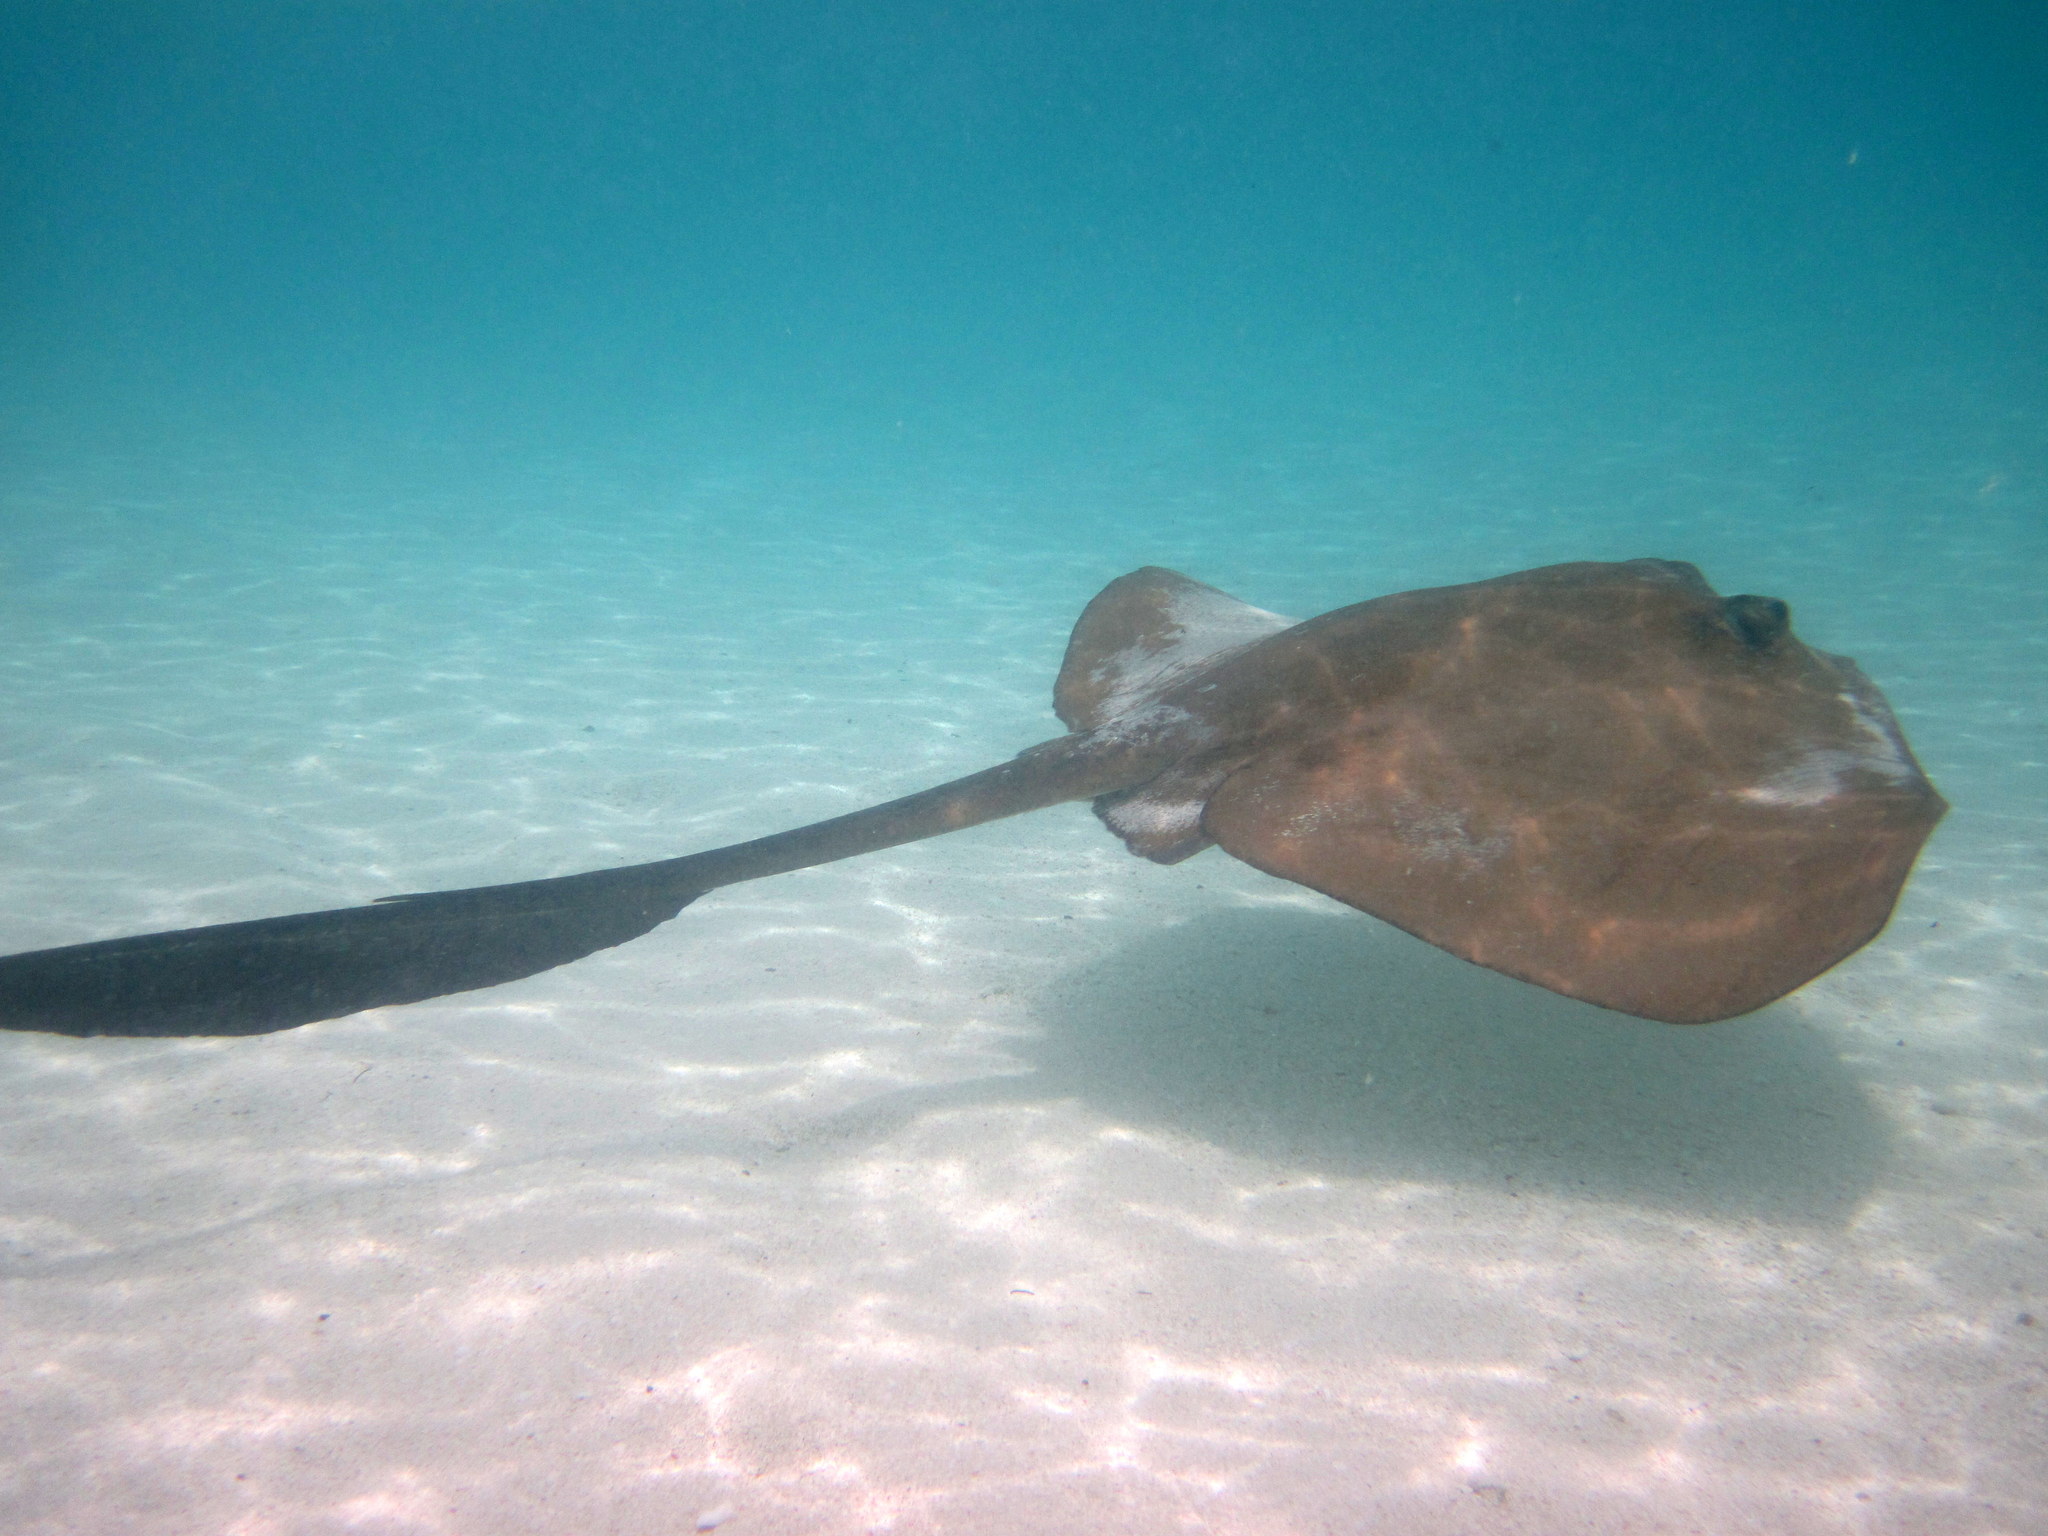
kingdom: Animalia
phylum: Chordata
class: Elasmobranchii
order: Myliobatiformes
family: Dasyatidae
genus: Pastinachus
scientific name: Pastinachus ater
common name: Banana-tail ray
